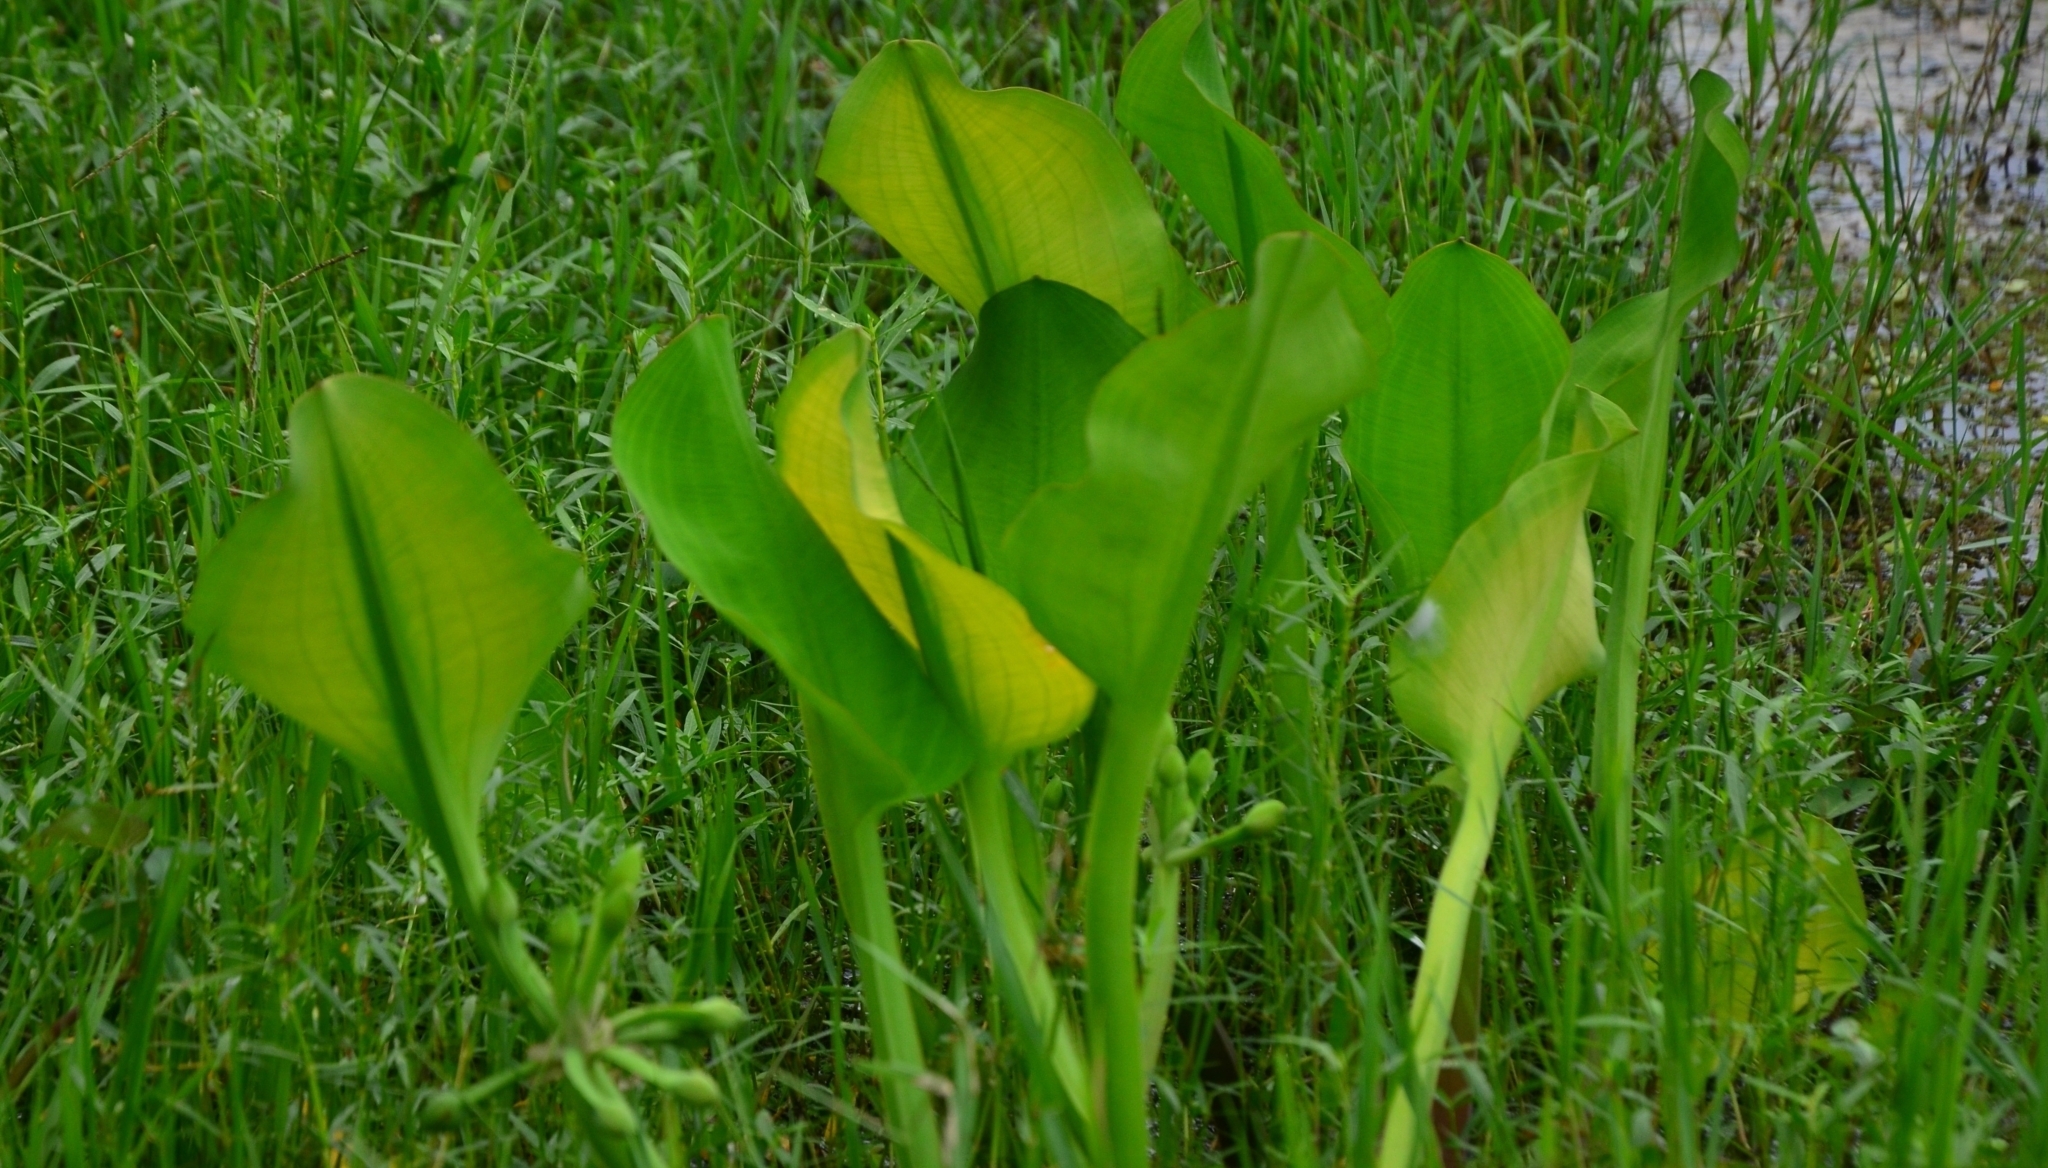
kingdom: Plantae
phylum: Tracheophyta
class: Liliopsida
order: Alismatales
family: Alismataceae
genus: Limnocharis
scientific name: Limnocharis flava
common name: Sawah-flower-rush
